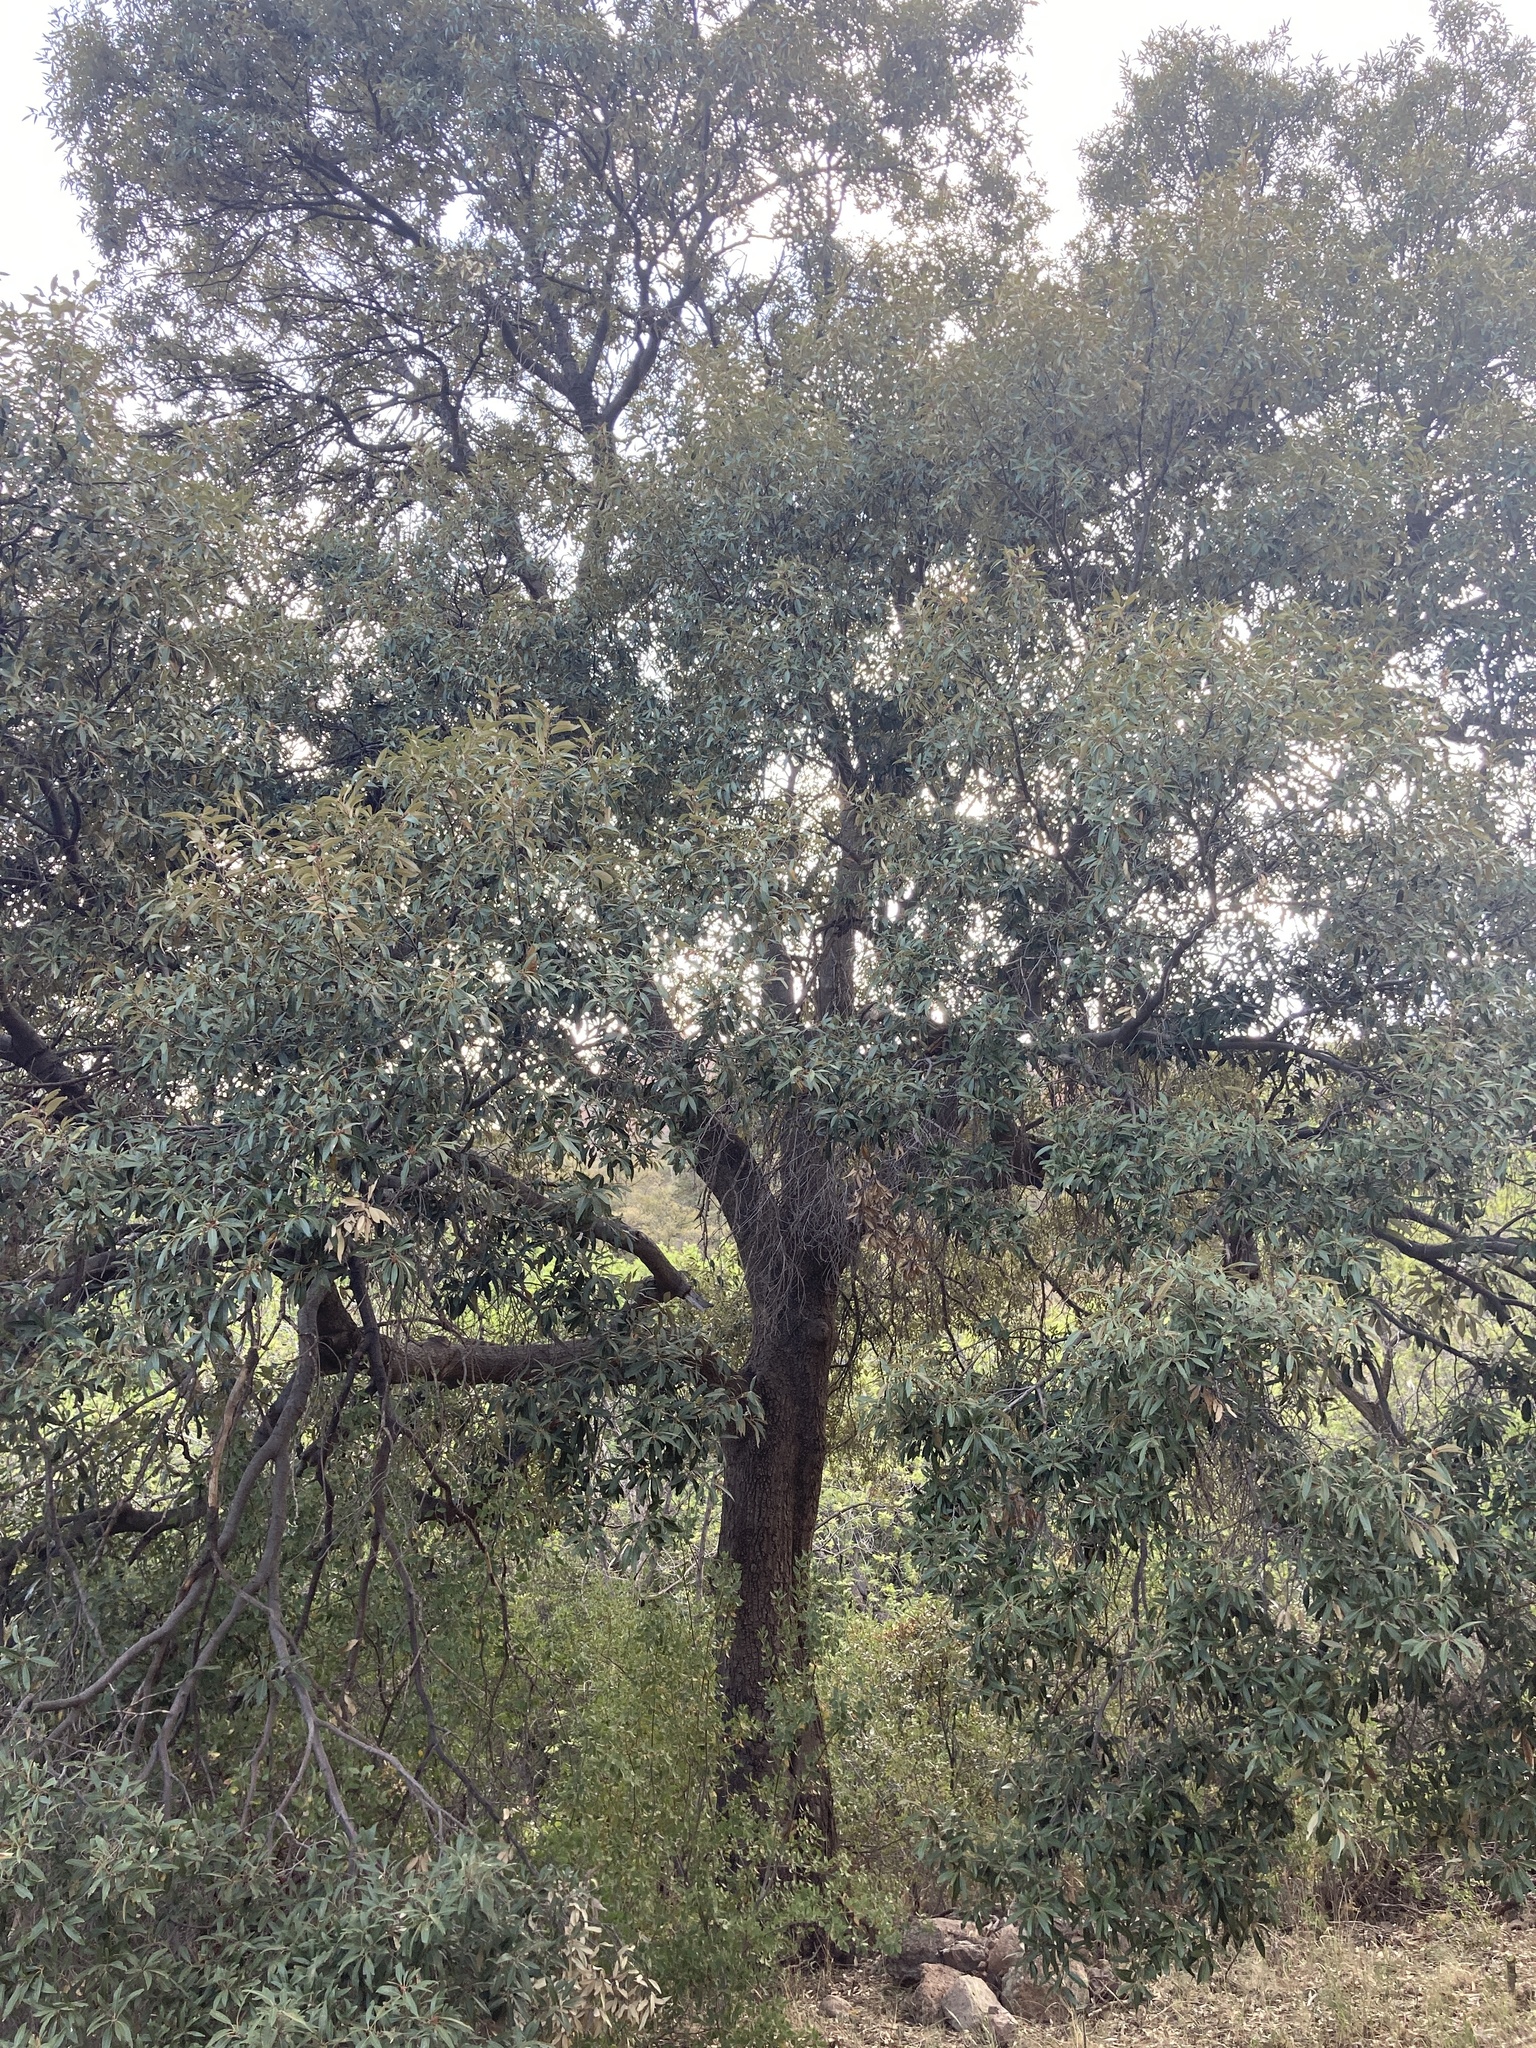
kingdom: Plantae
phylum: Tracheophyta
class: Magnoliopsida
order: Fagales
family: Fagaceae
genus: Quercus
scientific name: Quercus hypoleucoides
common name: Silverleaf oak
